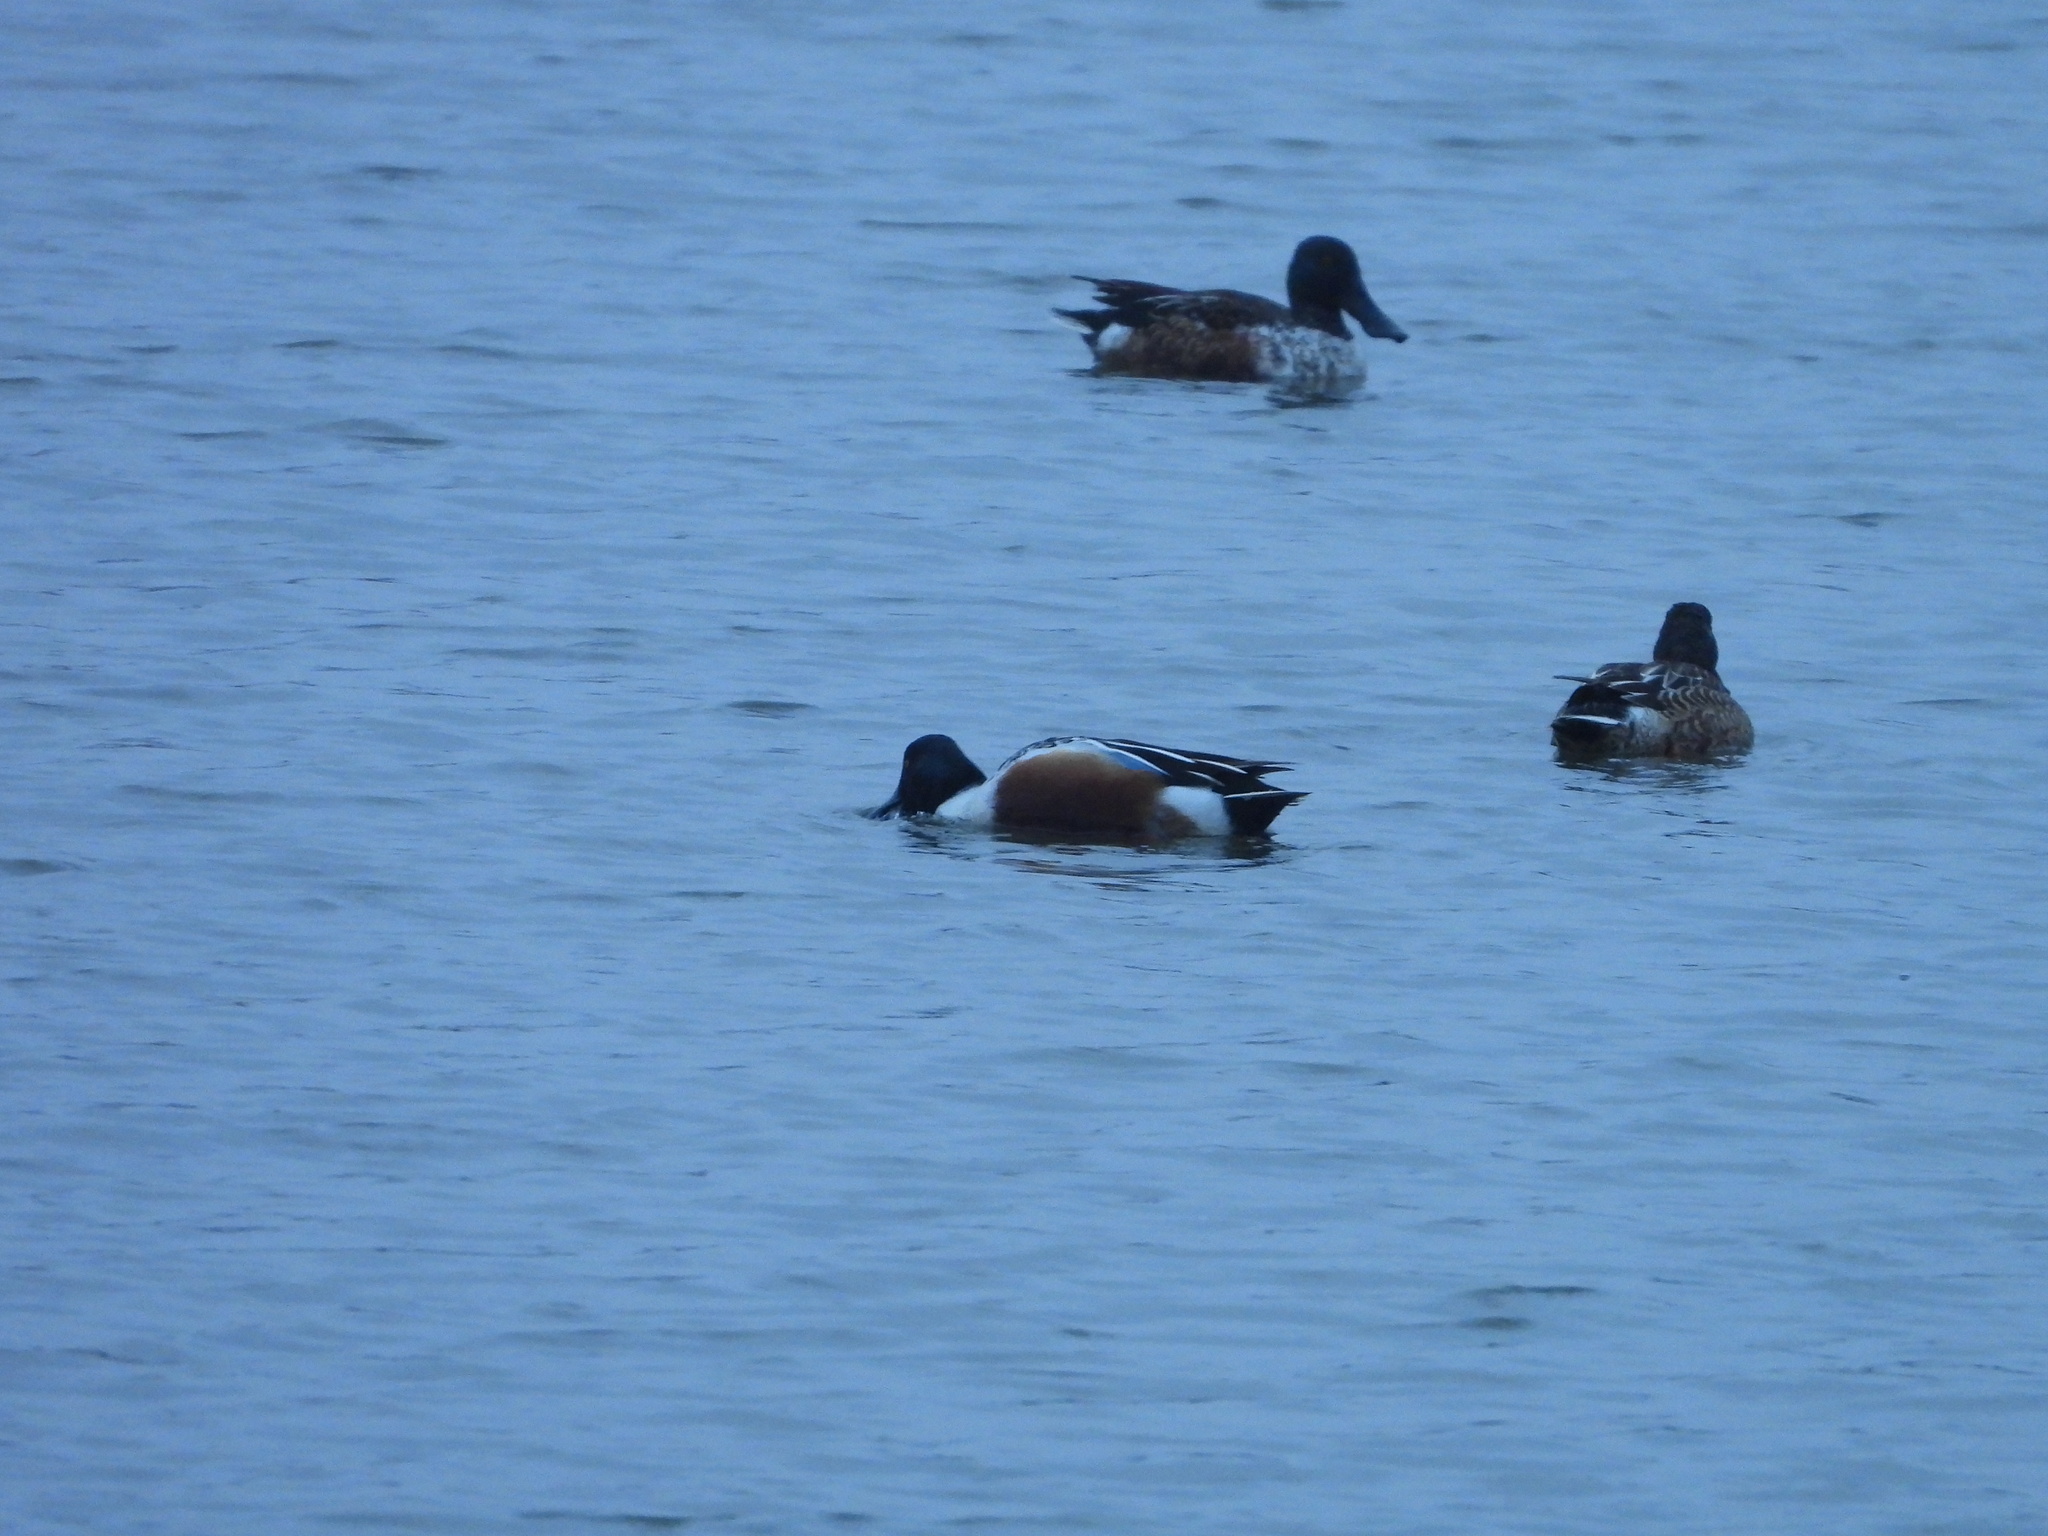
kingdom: Animalia
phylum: Chordata
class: Aves
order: Anseriformes
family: Anatidae
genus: Spatula
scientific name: Spatula clypeata
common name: Northern shoveler
